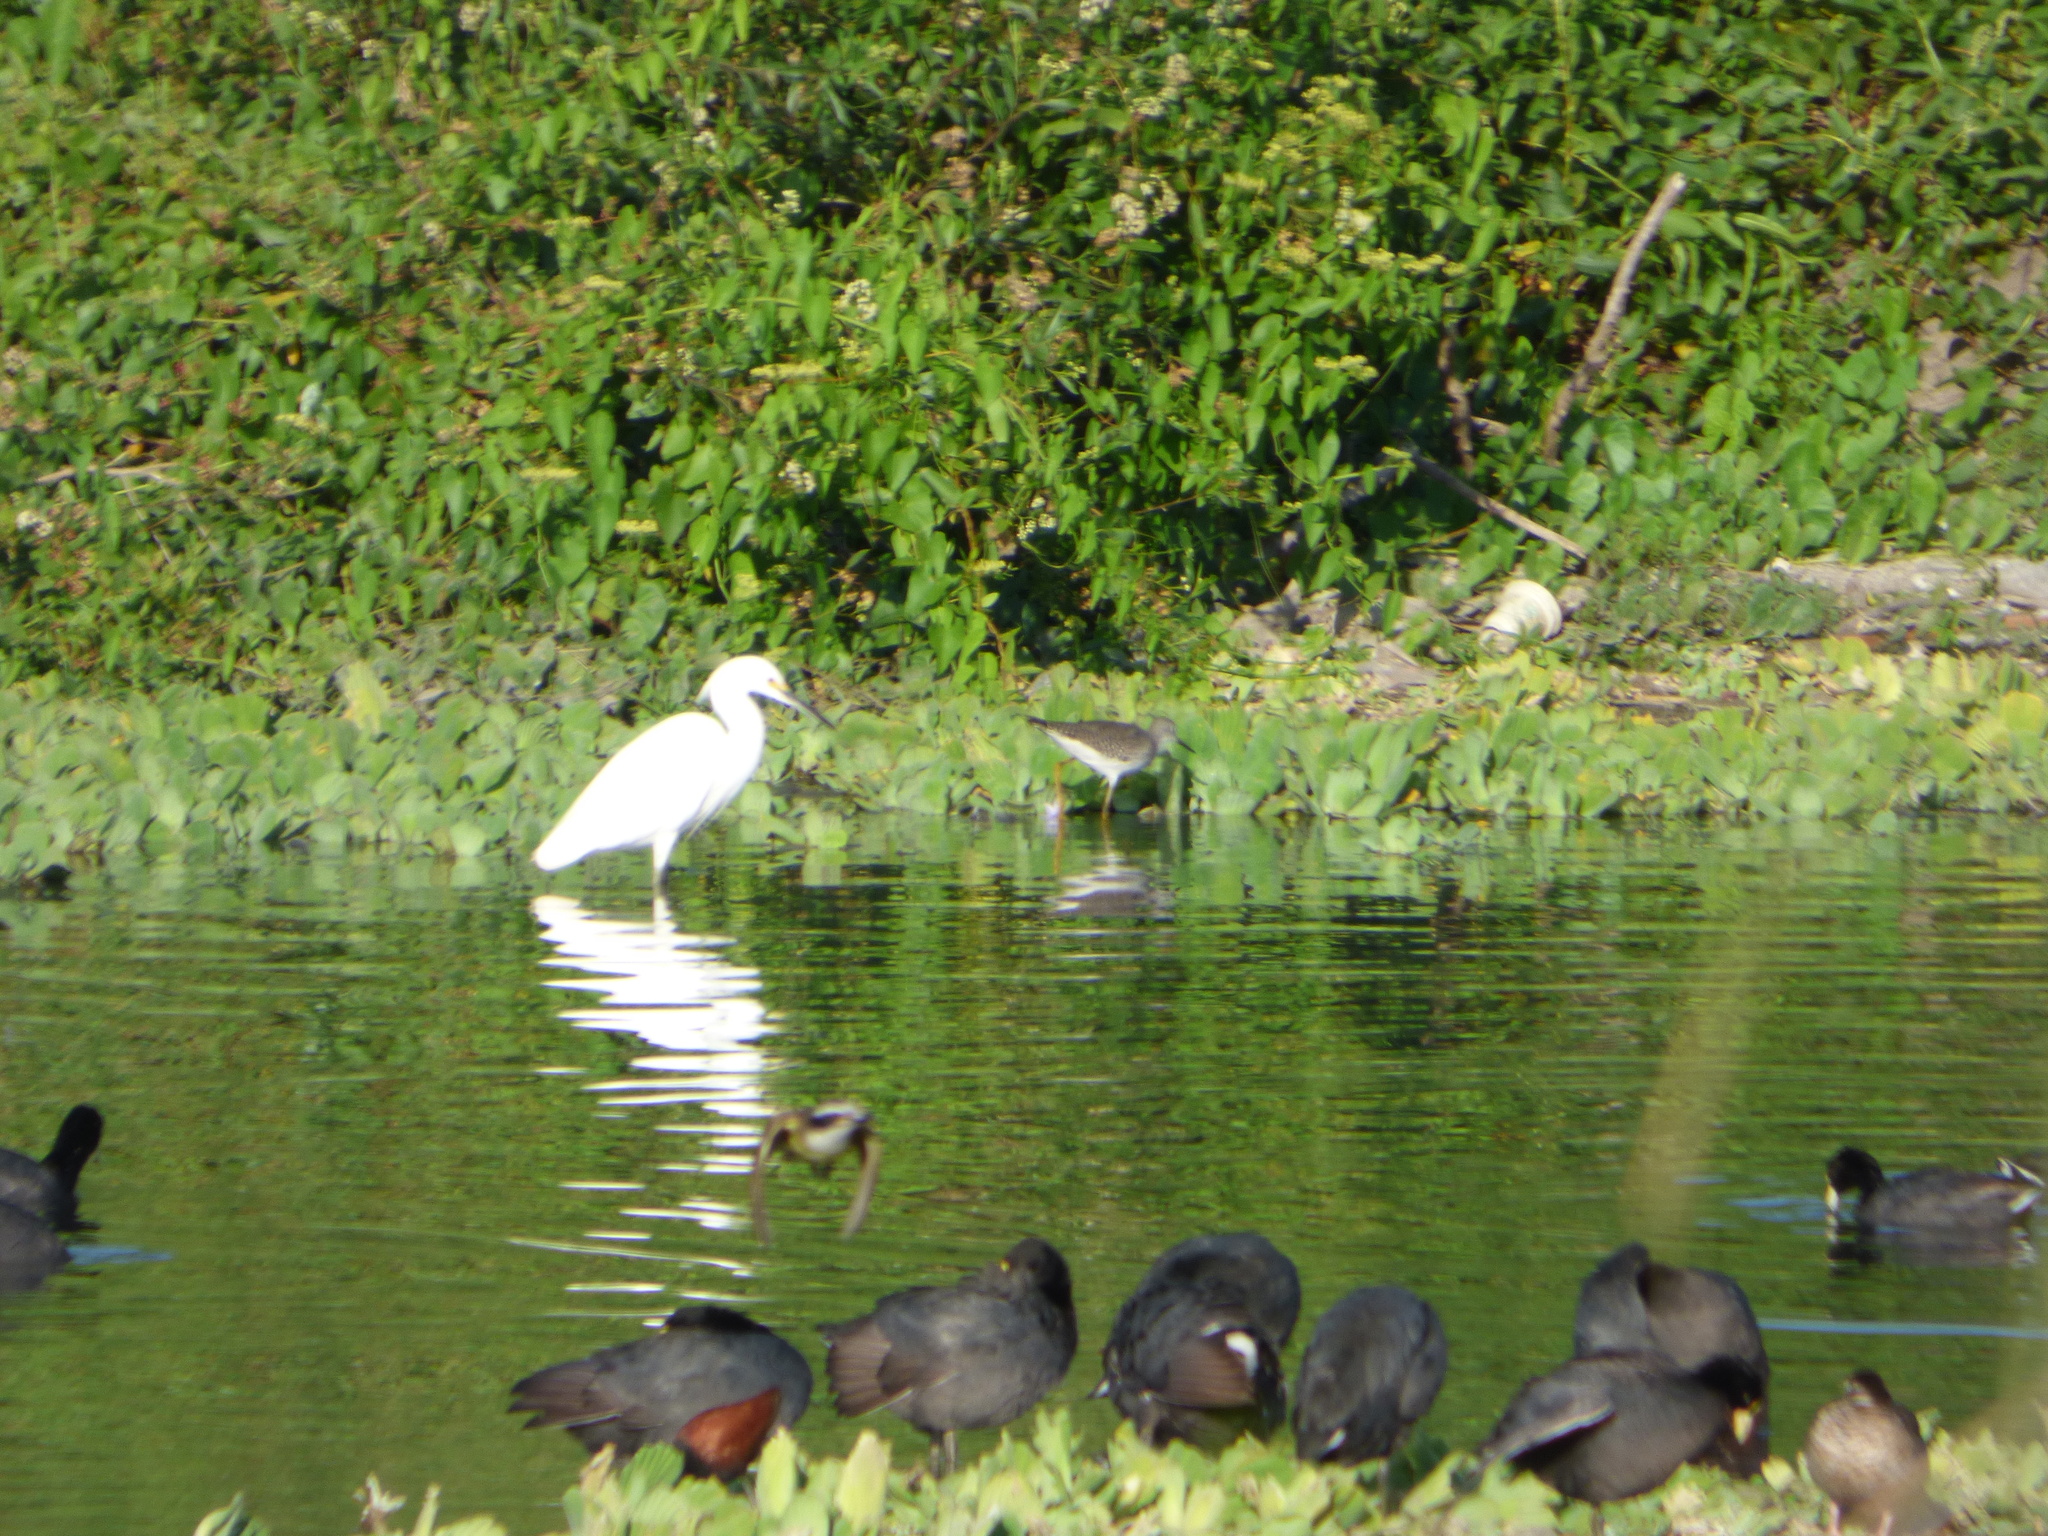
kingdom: Animalia
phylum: Chordata
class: Aves
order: Pelecaniformes
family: Ardeidae
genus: Egretta
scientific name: Egretta thula
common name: Snowy egret
